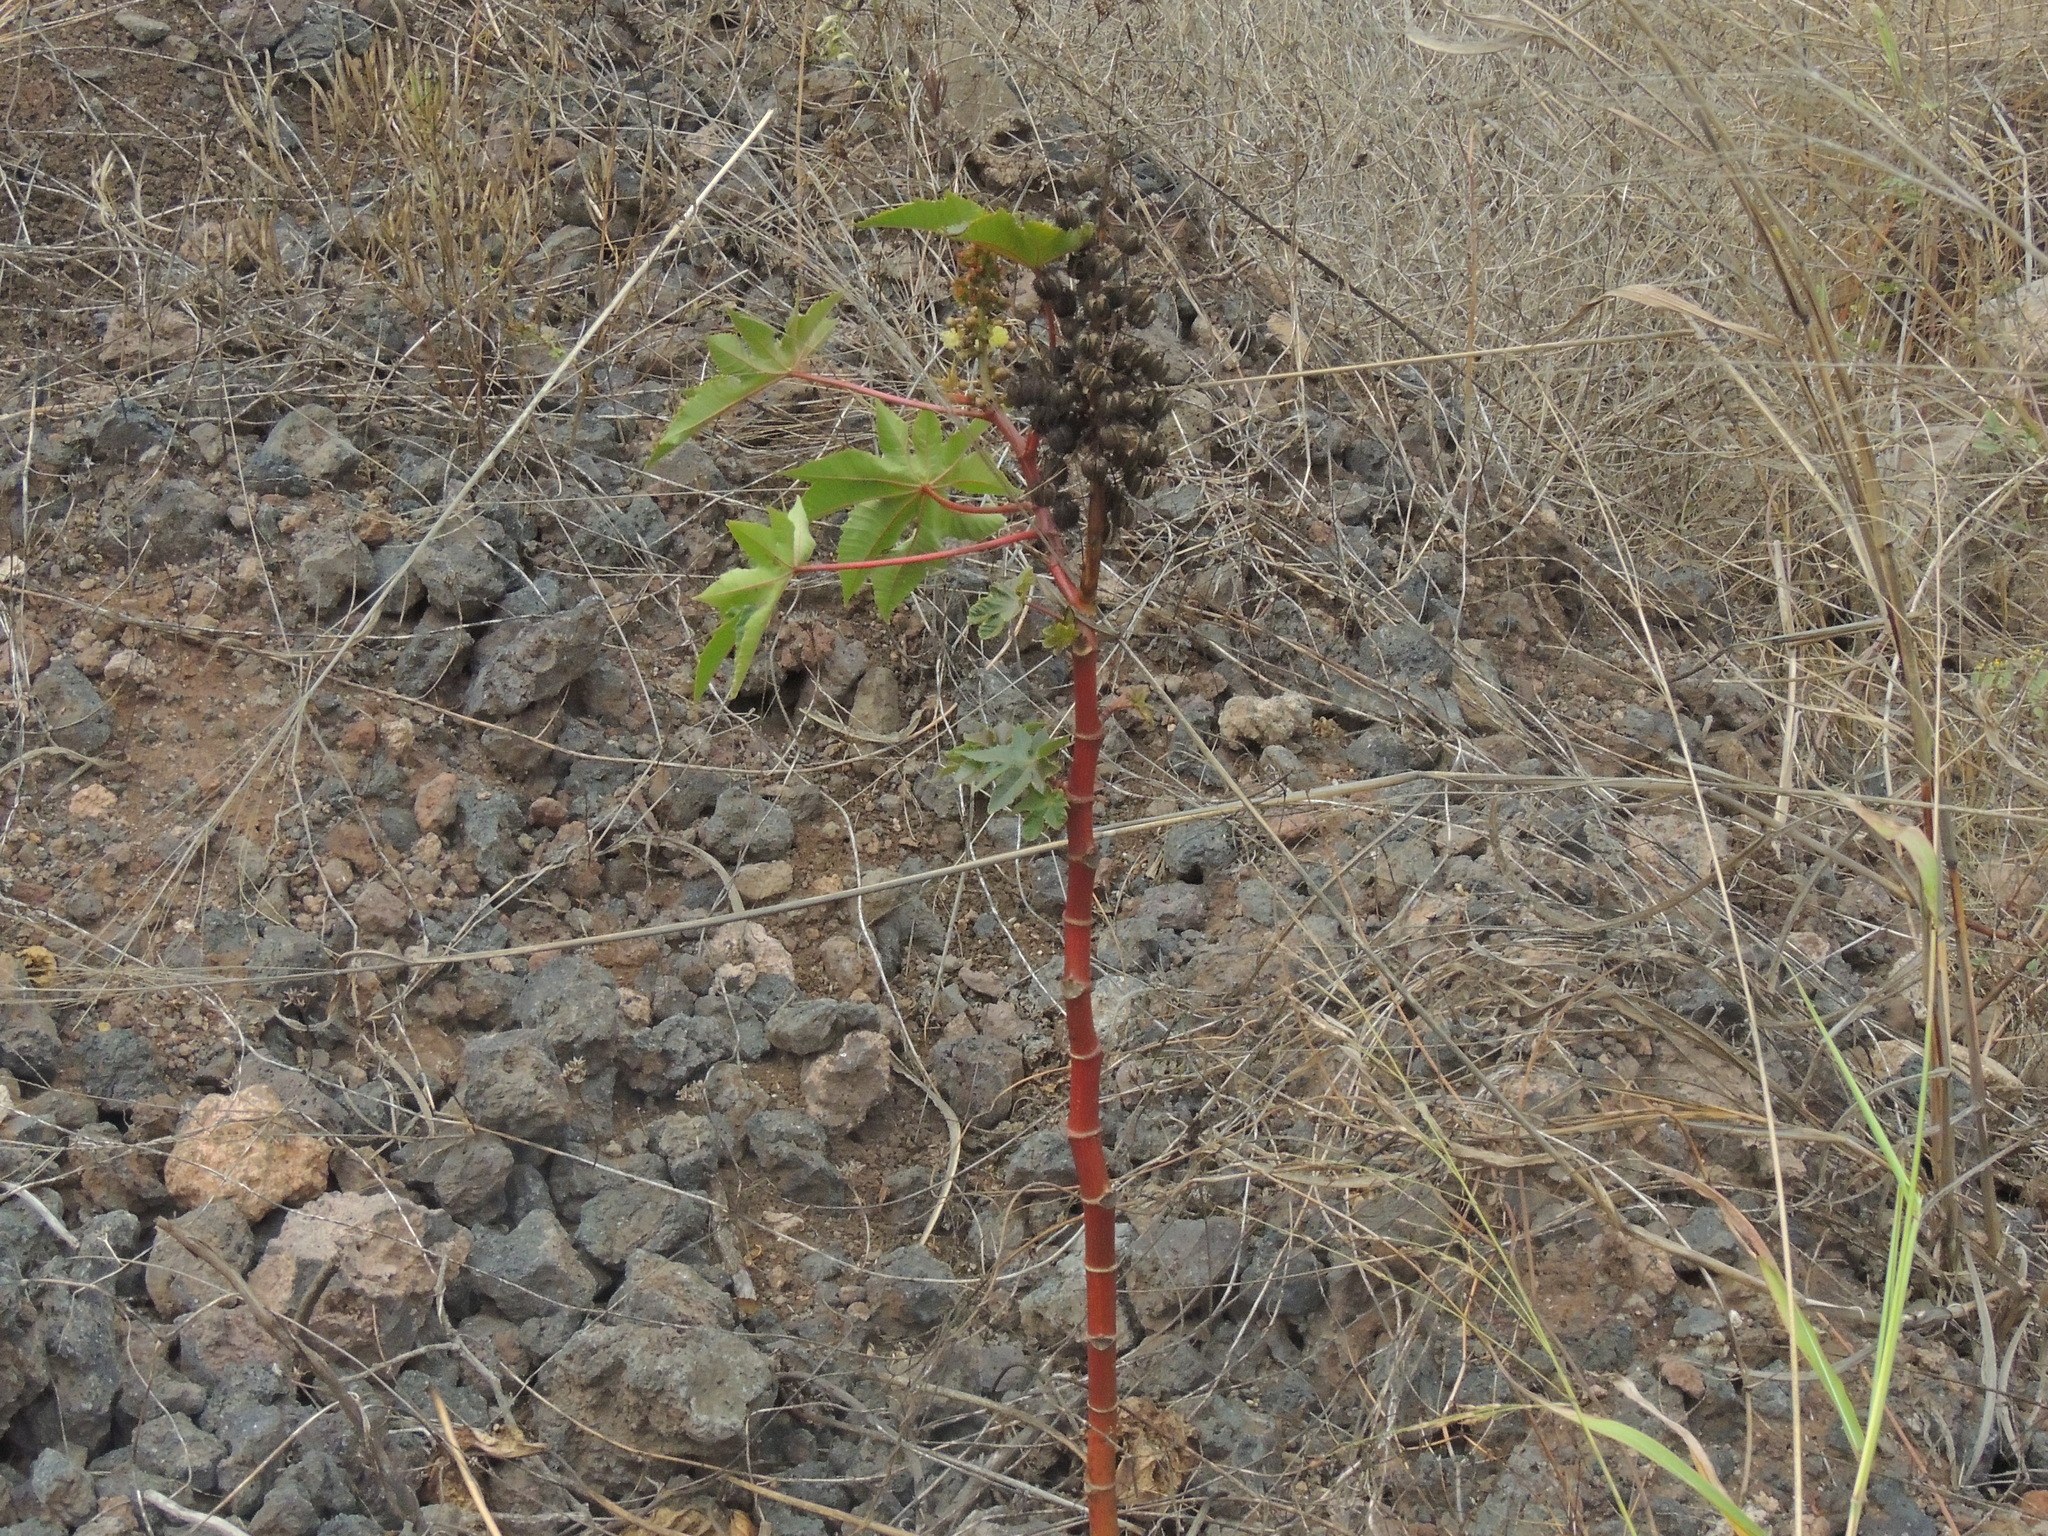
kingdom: Plantae
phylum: Tracheophyta
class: Magnoliopsida
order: Malpighiales
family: Euphorbiaceae
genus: Ricinus
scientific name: Ricinus communis
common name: Castor-oil-plant
